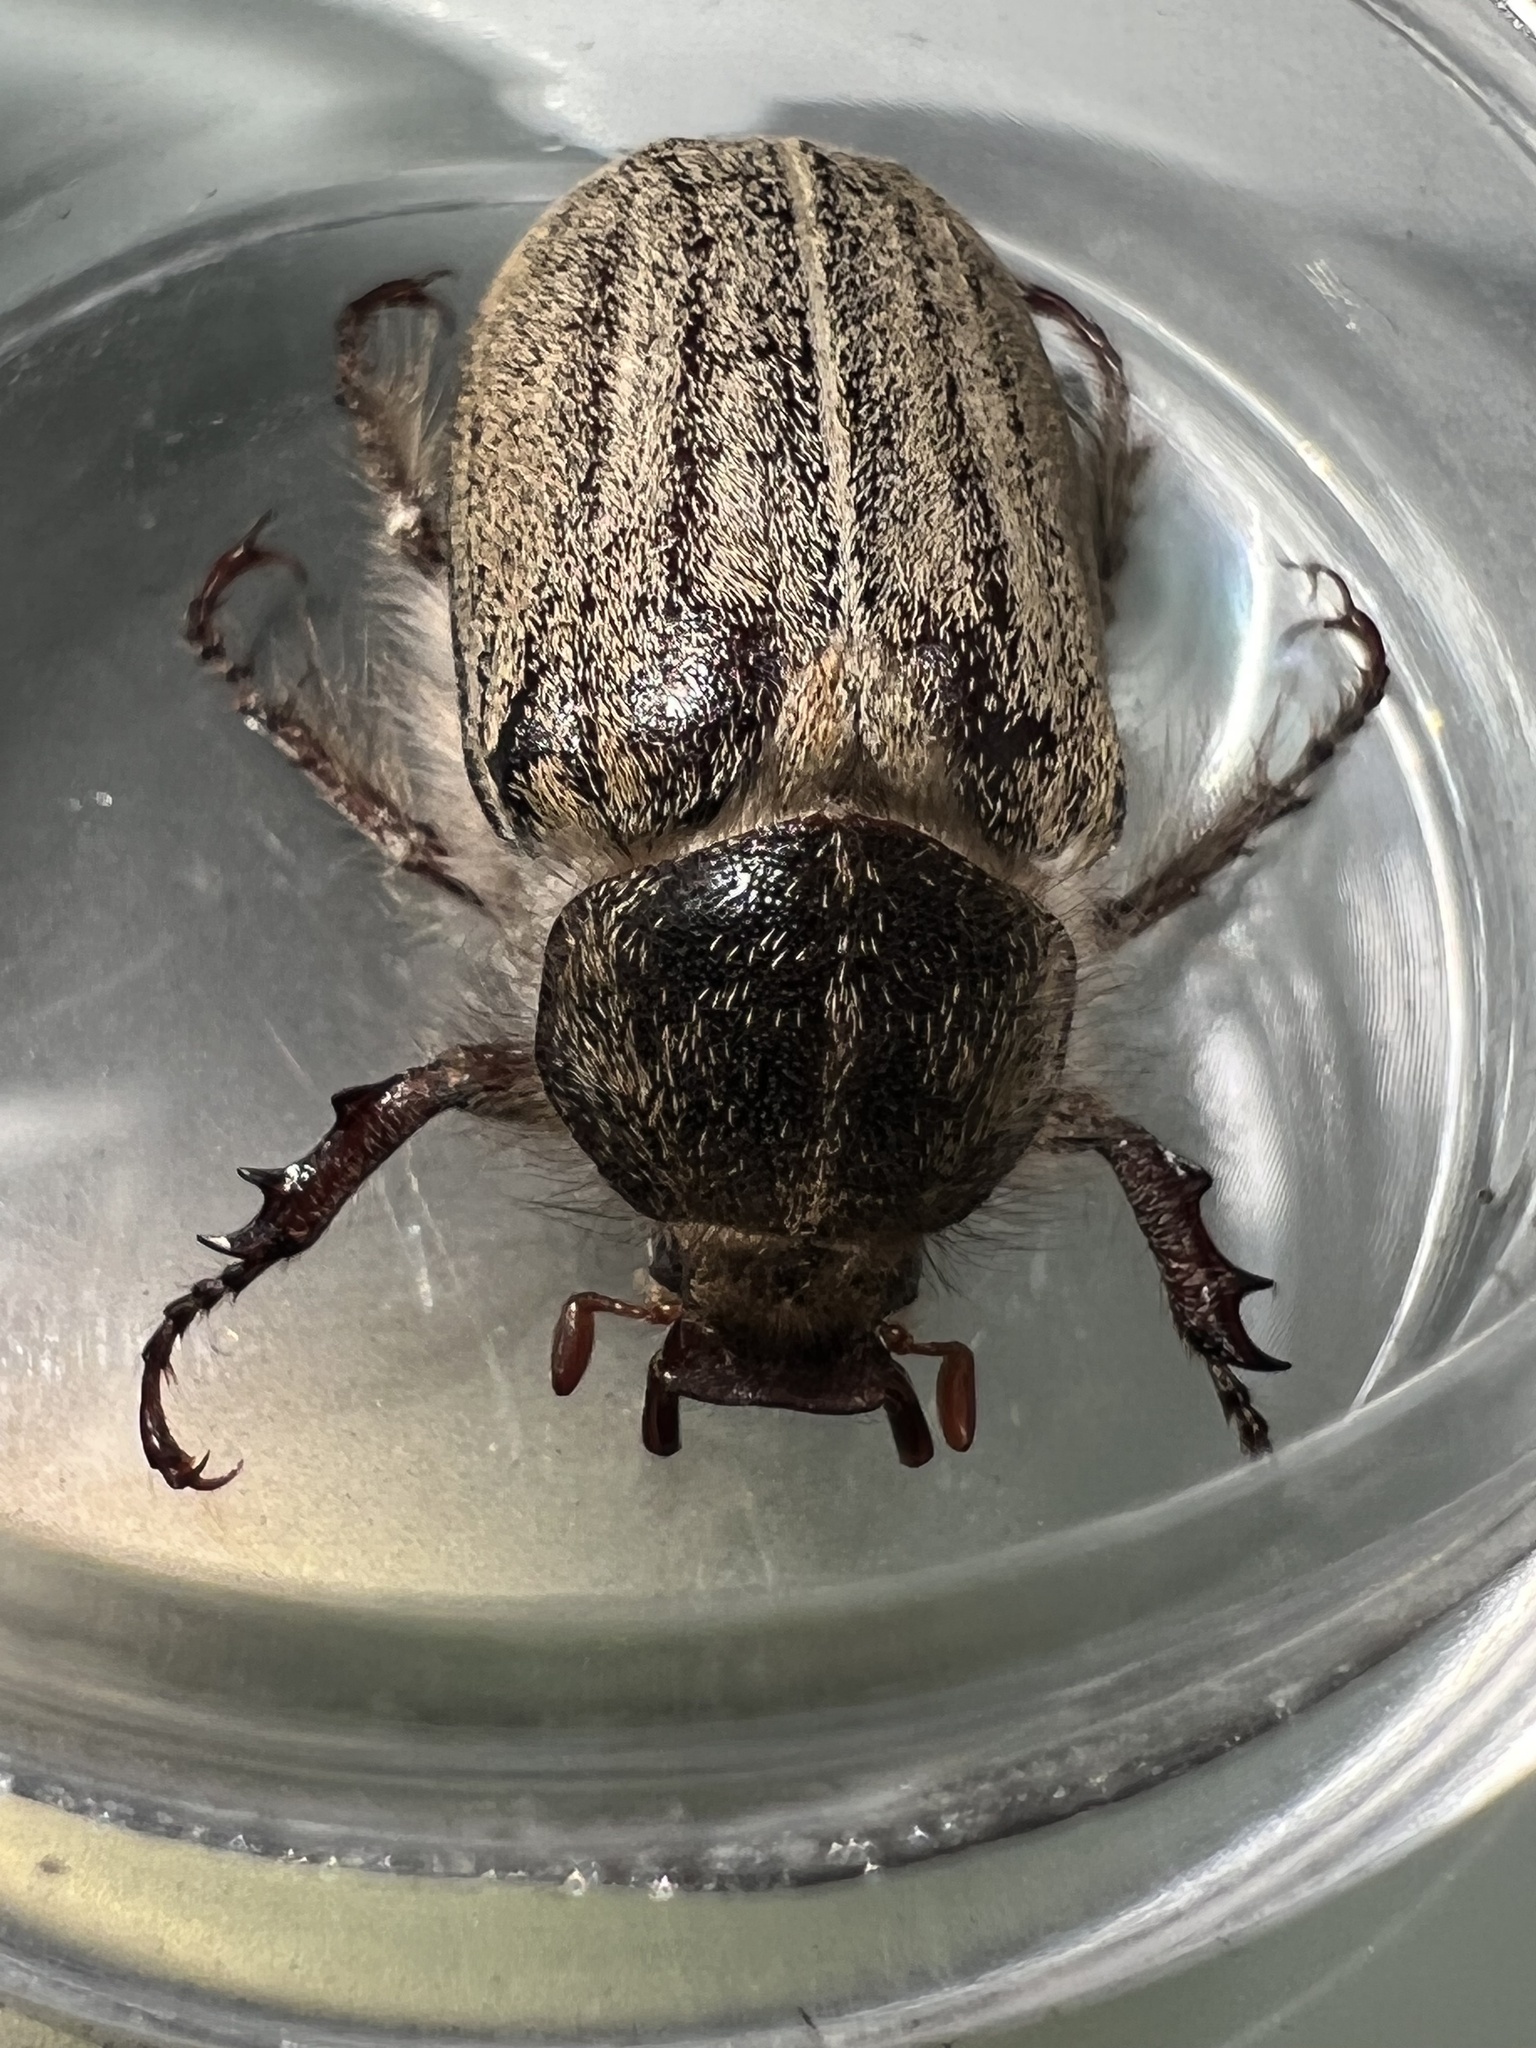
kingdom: Animalia
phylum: Arthropoda
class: Insecta
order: Coleoptera
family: Scarabaeidae
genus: Amblonoxia
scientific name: Amblonoxia harfordi
